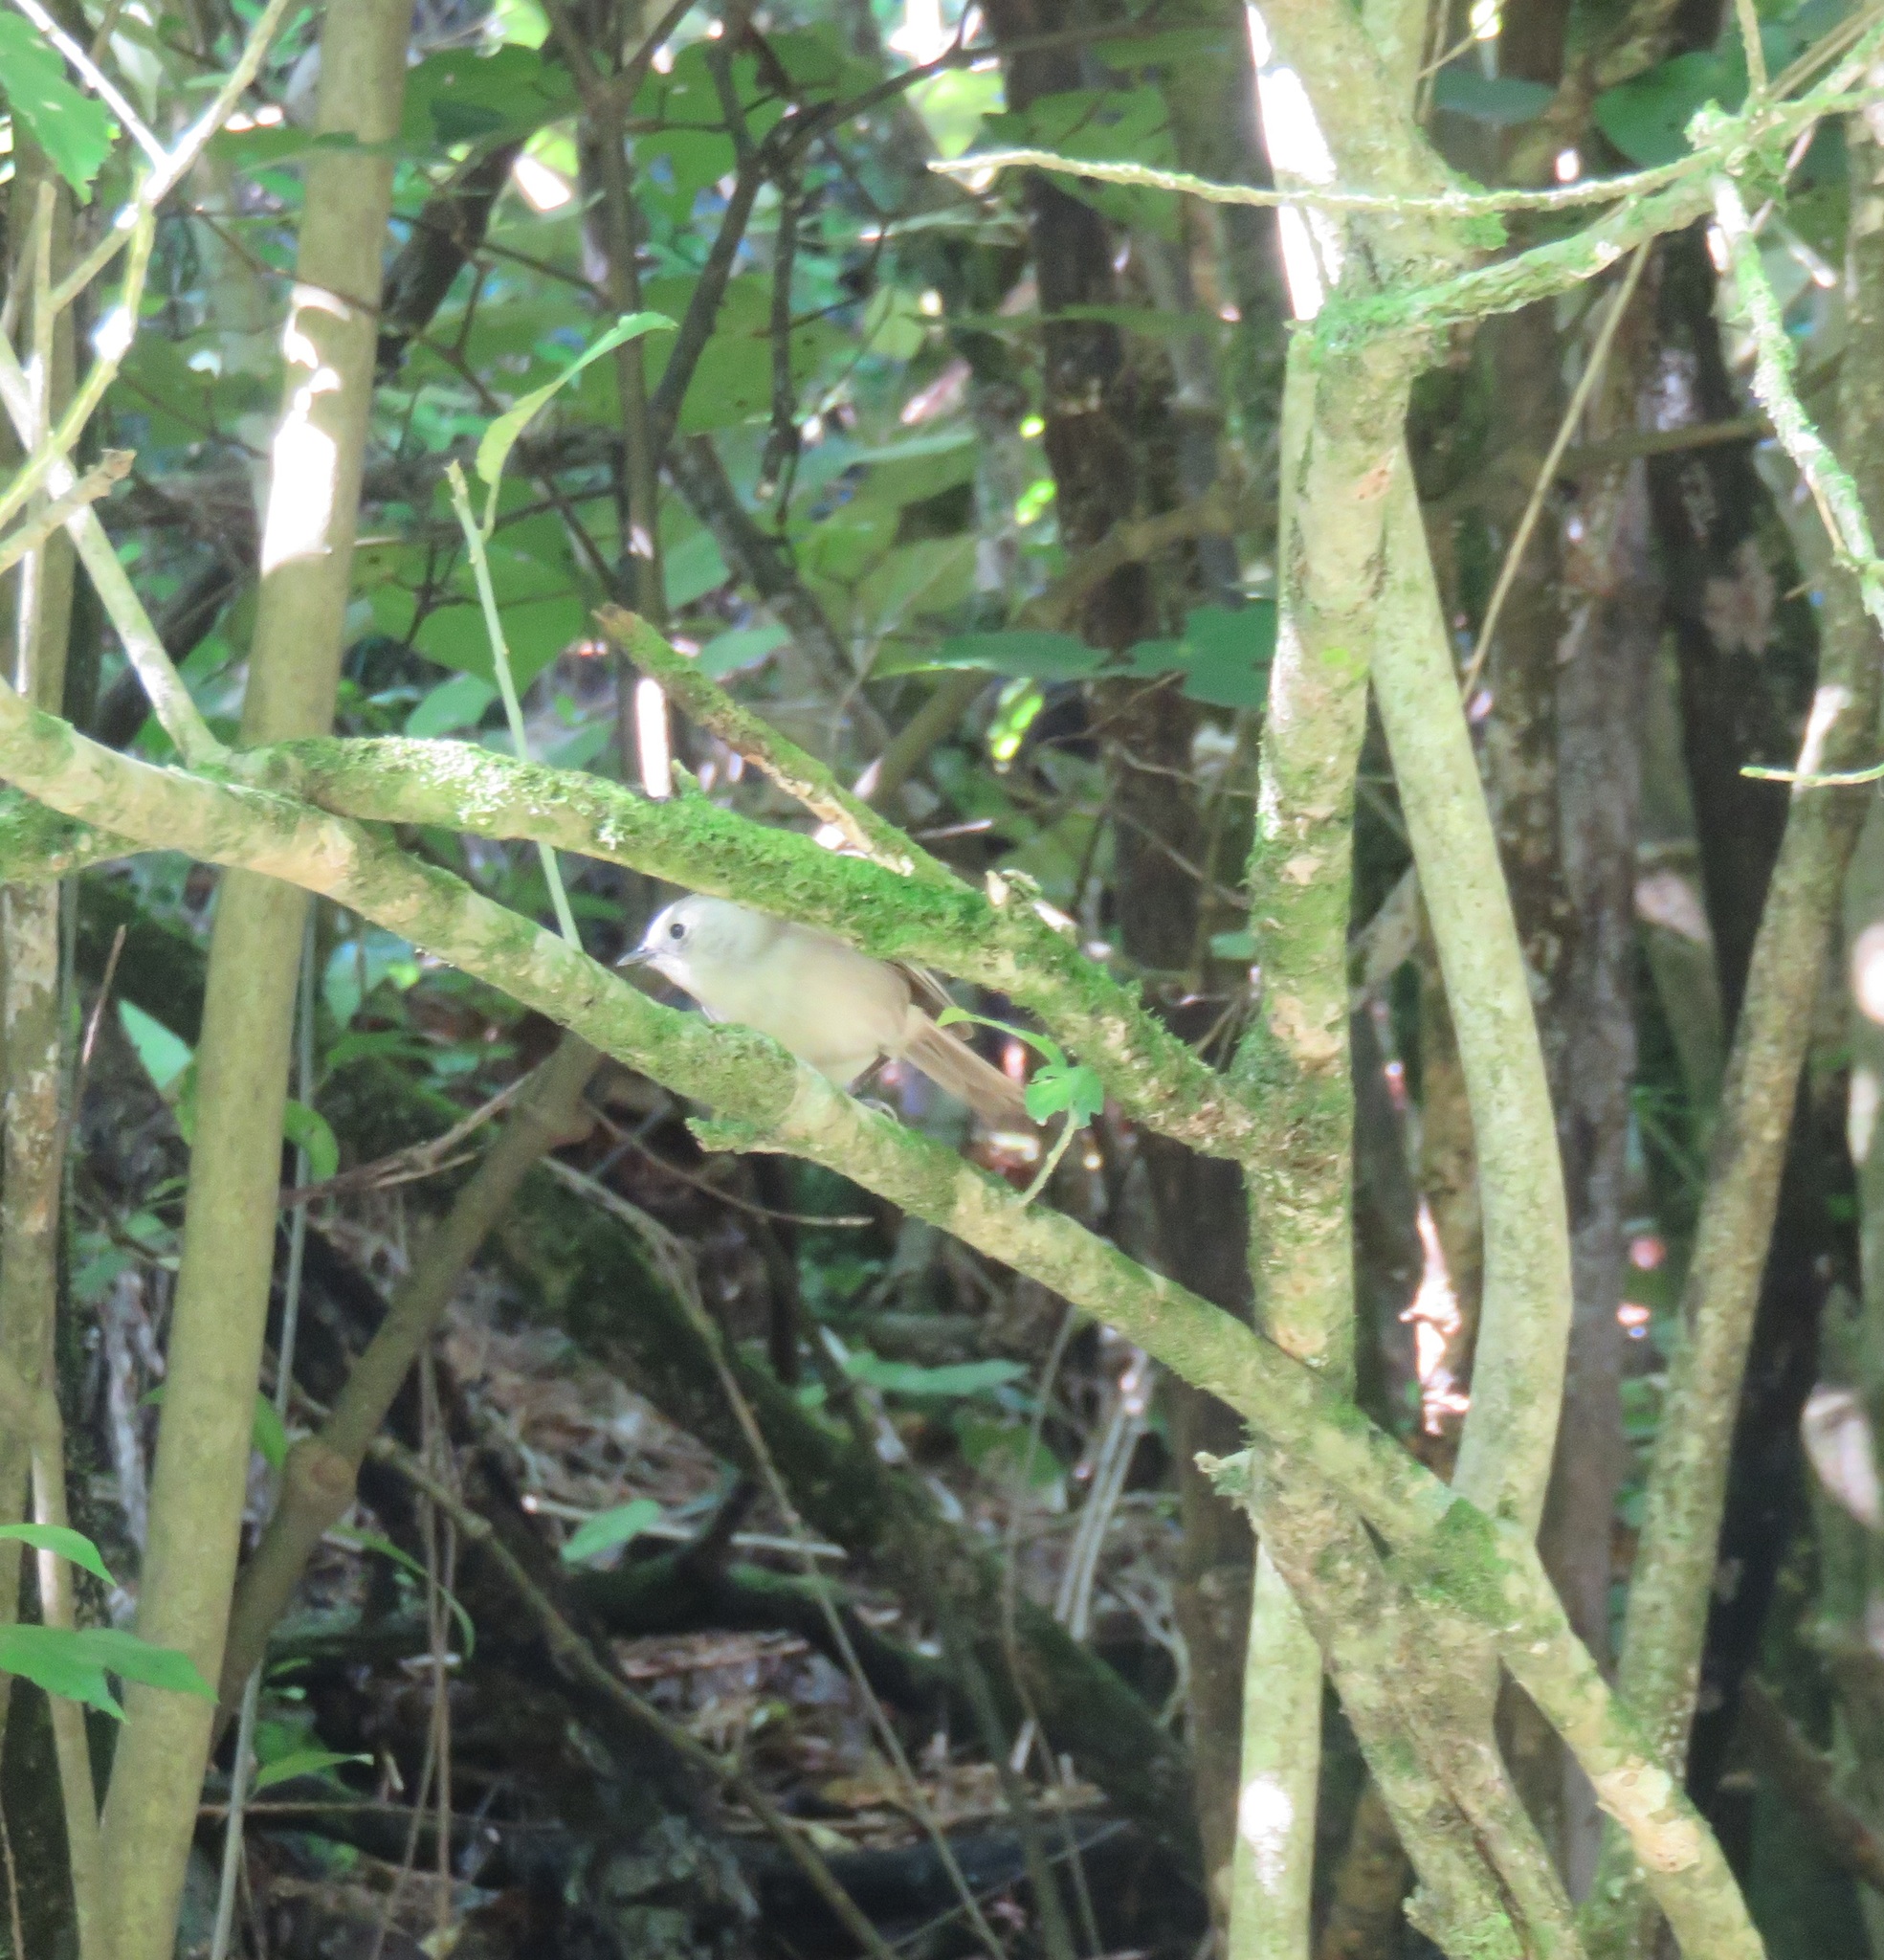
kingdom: Animalia
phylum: Chordata
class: Aves
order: Passeriformes
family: Acanthizidae
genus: Mohoua
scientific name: Mohoua albicilla
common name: Whitehead
